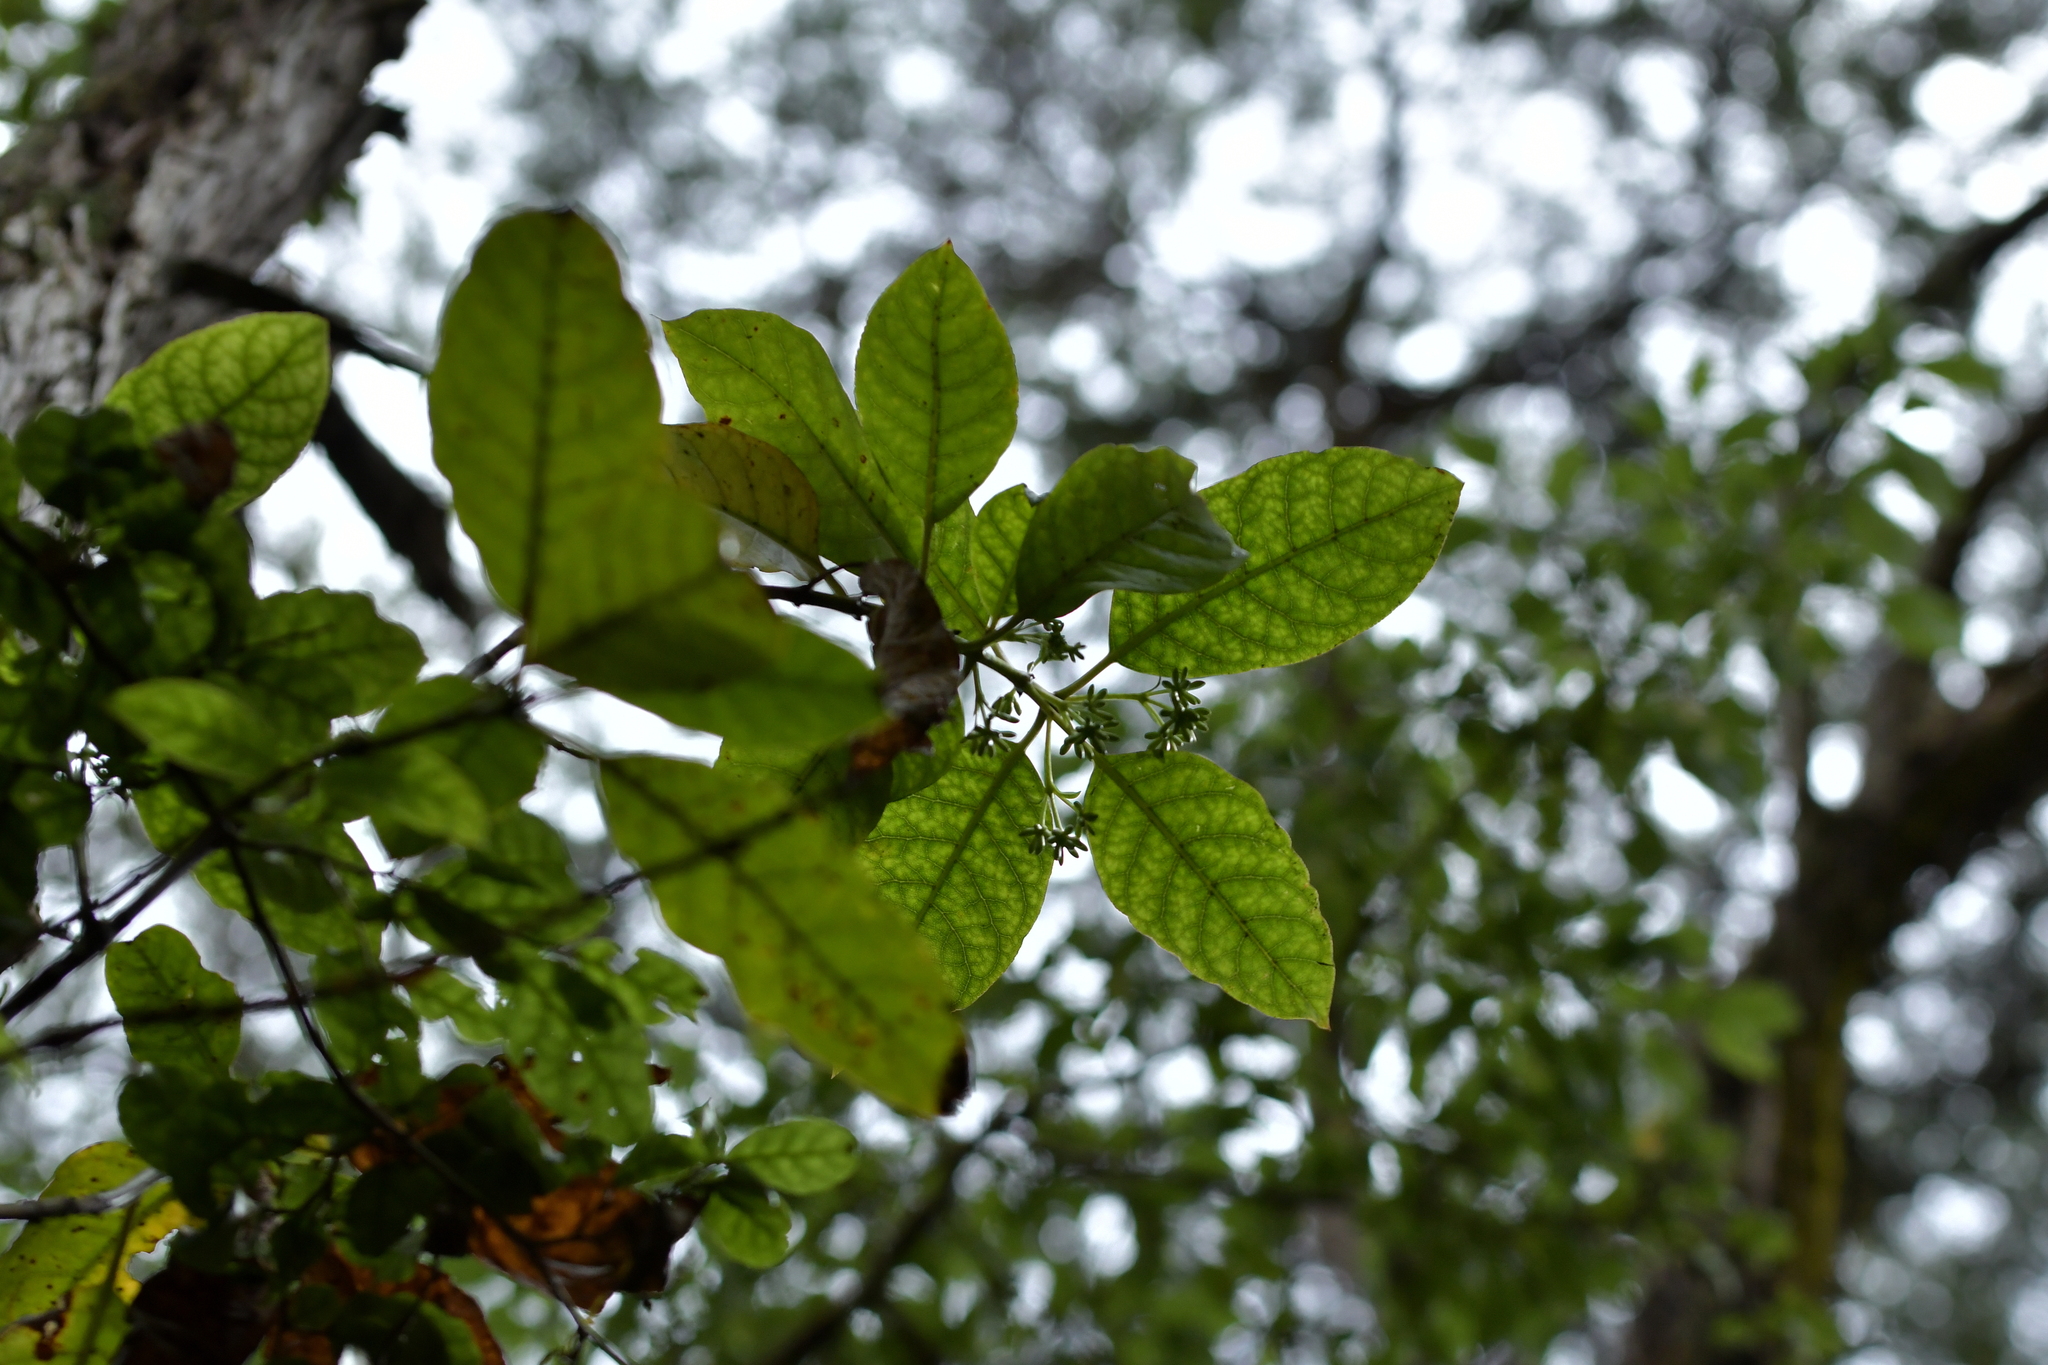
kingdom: Plantae
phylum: Tracheophyta
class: Magnoliopsida
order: Gentianales
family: Rubiaceae
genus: Coprosma
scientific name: Coprosma autumnalis
